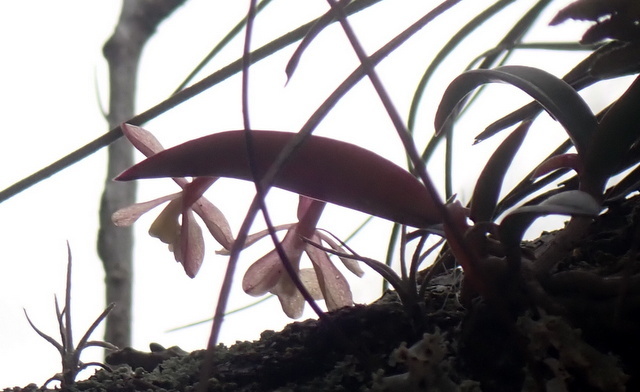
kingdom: Plantae
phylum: Tracheophyta
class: Liliopsida
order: Asparagales
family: Orchidaceae
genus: Epidendrum
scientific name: Epidendrum conopseum
